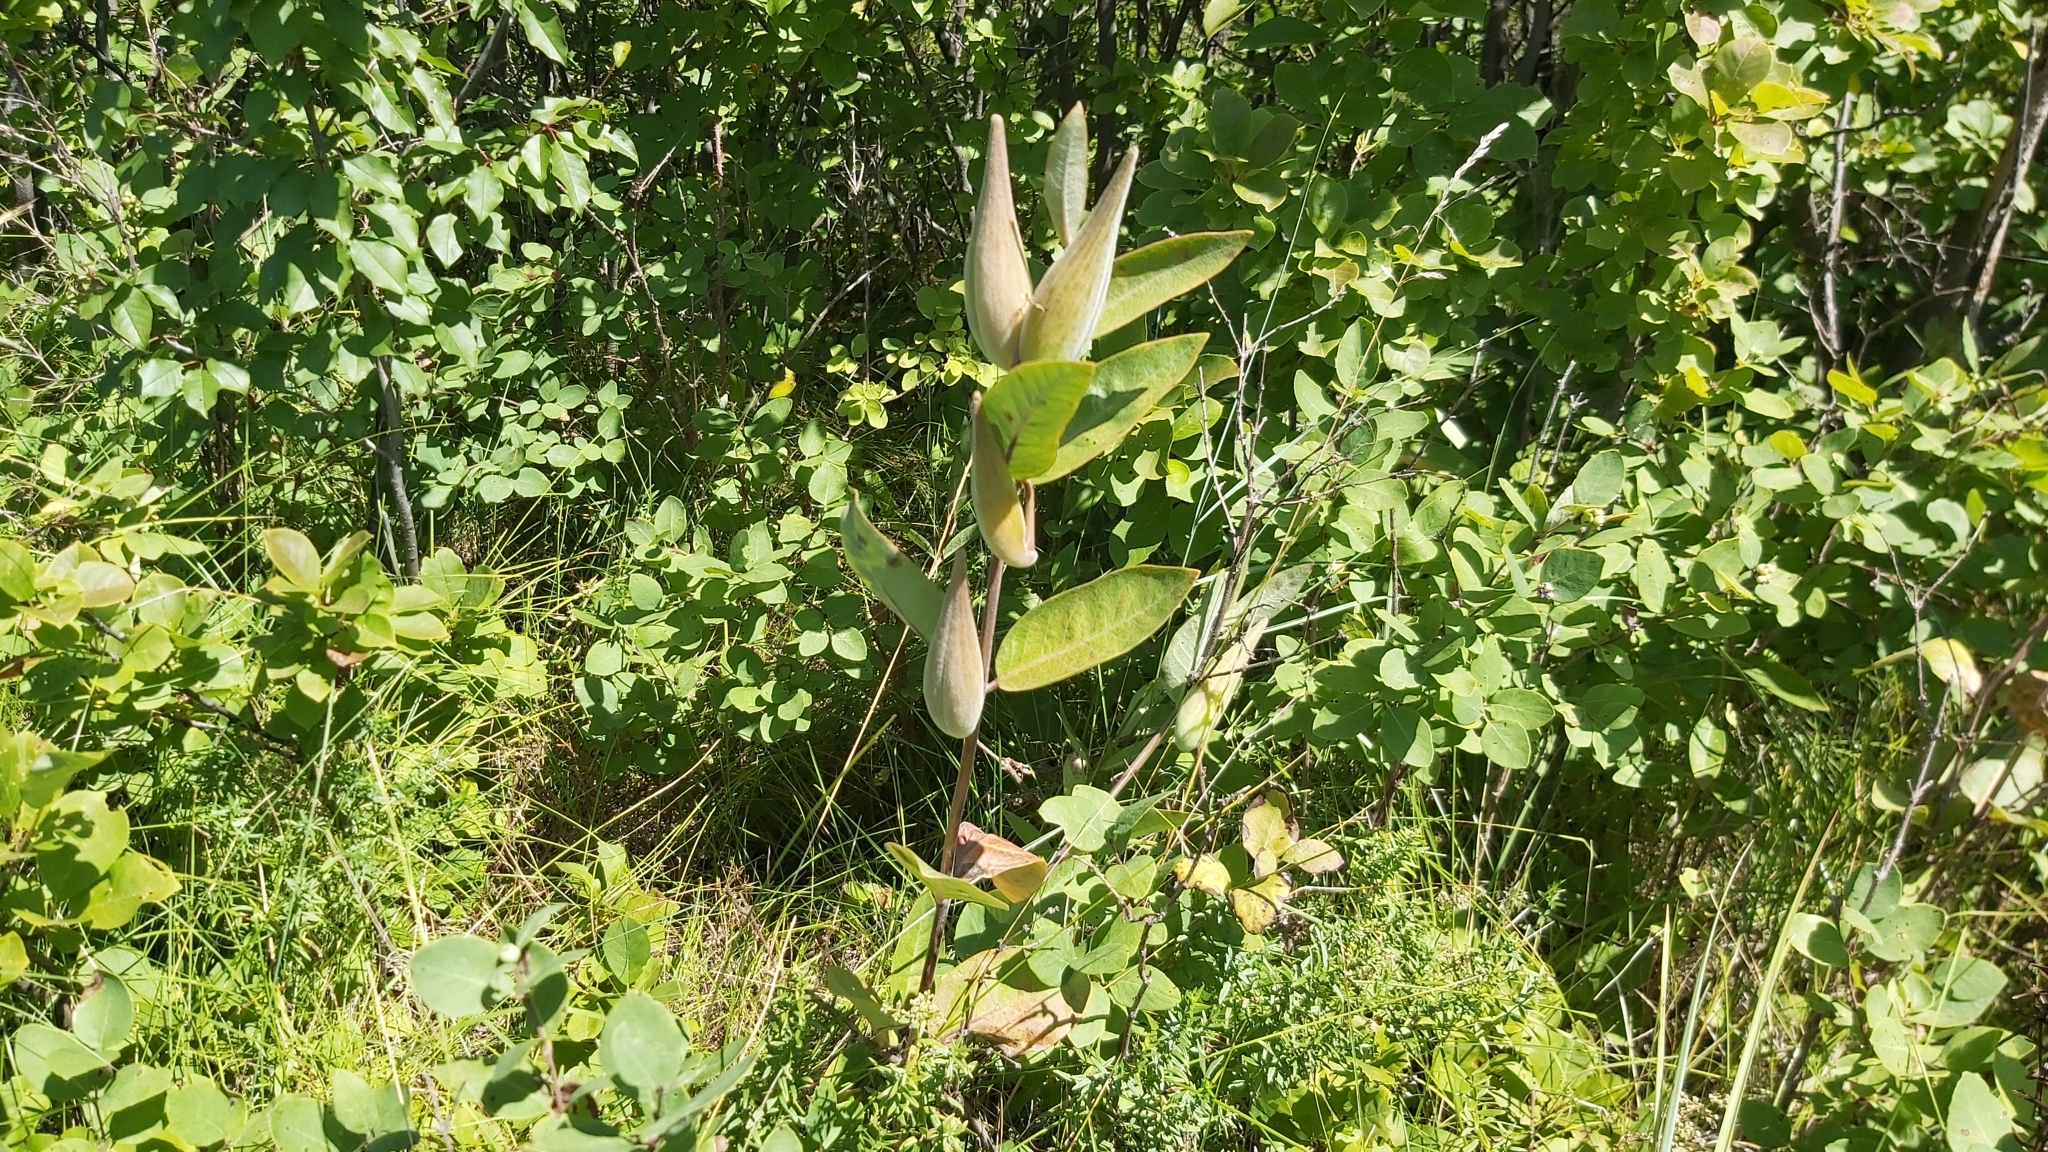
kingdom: Plantae
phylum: Tracheophyta
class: Magnoliopsida
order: Gentianales
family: Apocynaceae
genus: Asclepias
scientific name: Asclepias ovalifolia
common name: Dwarf milkweed
